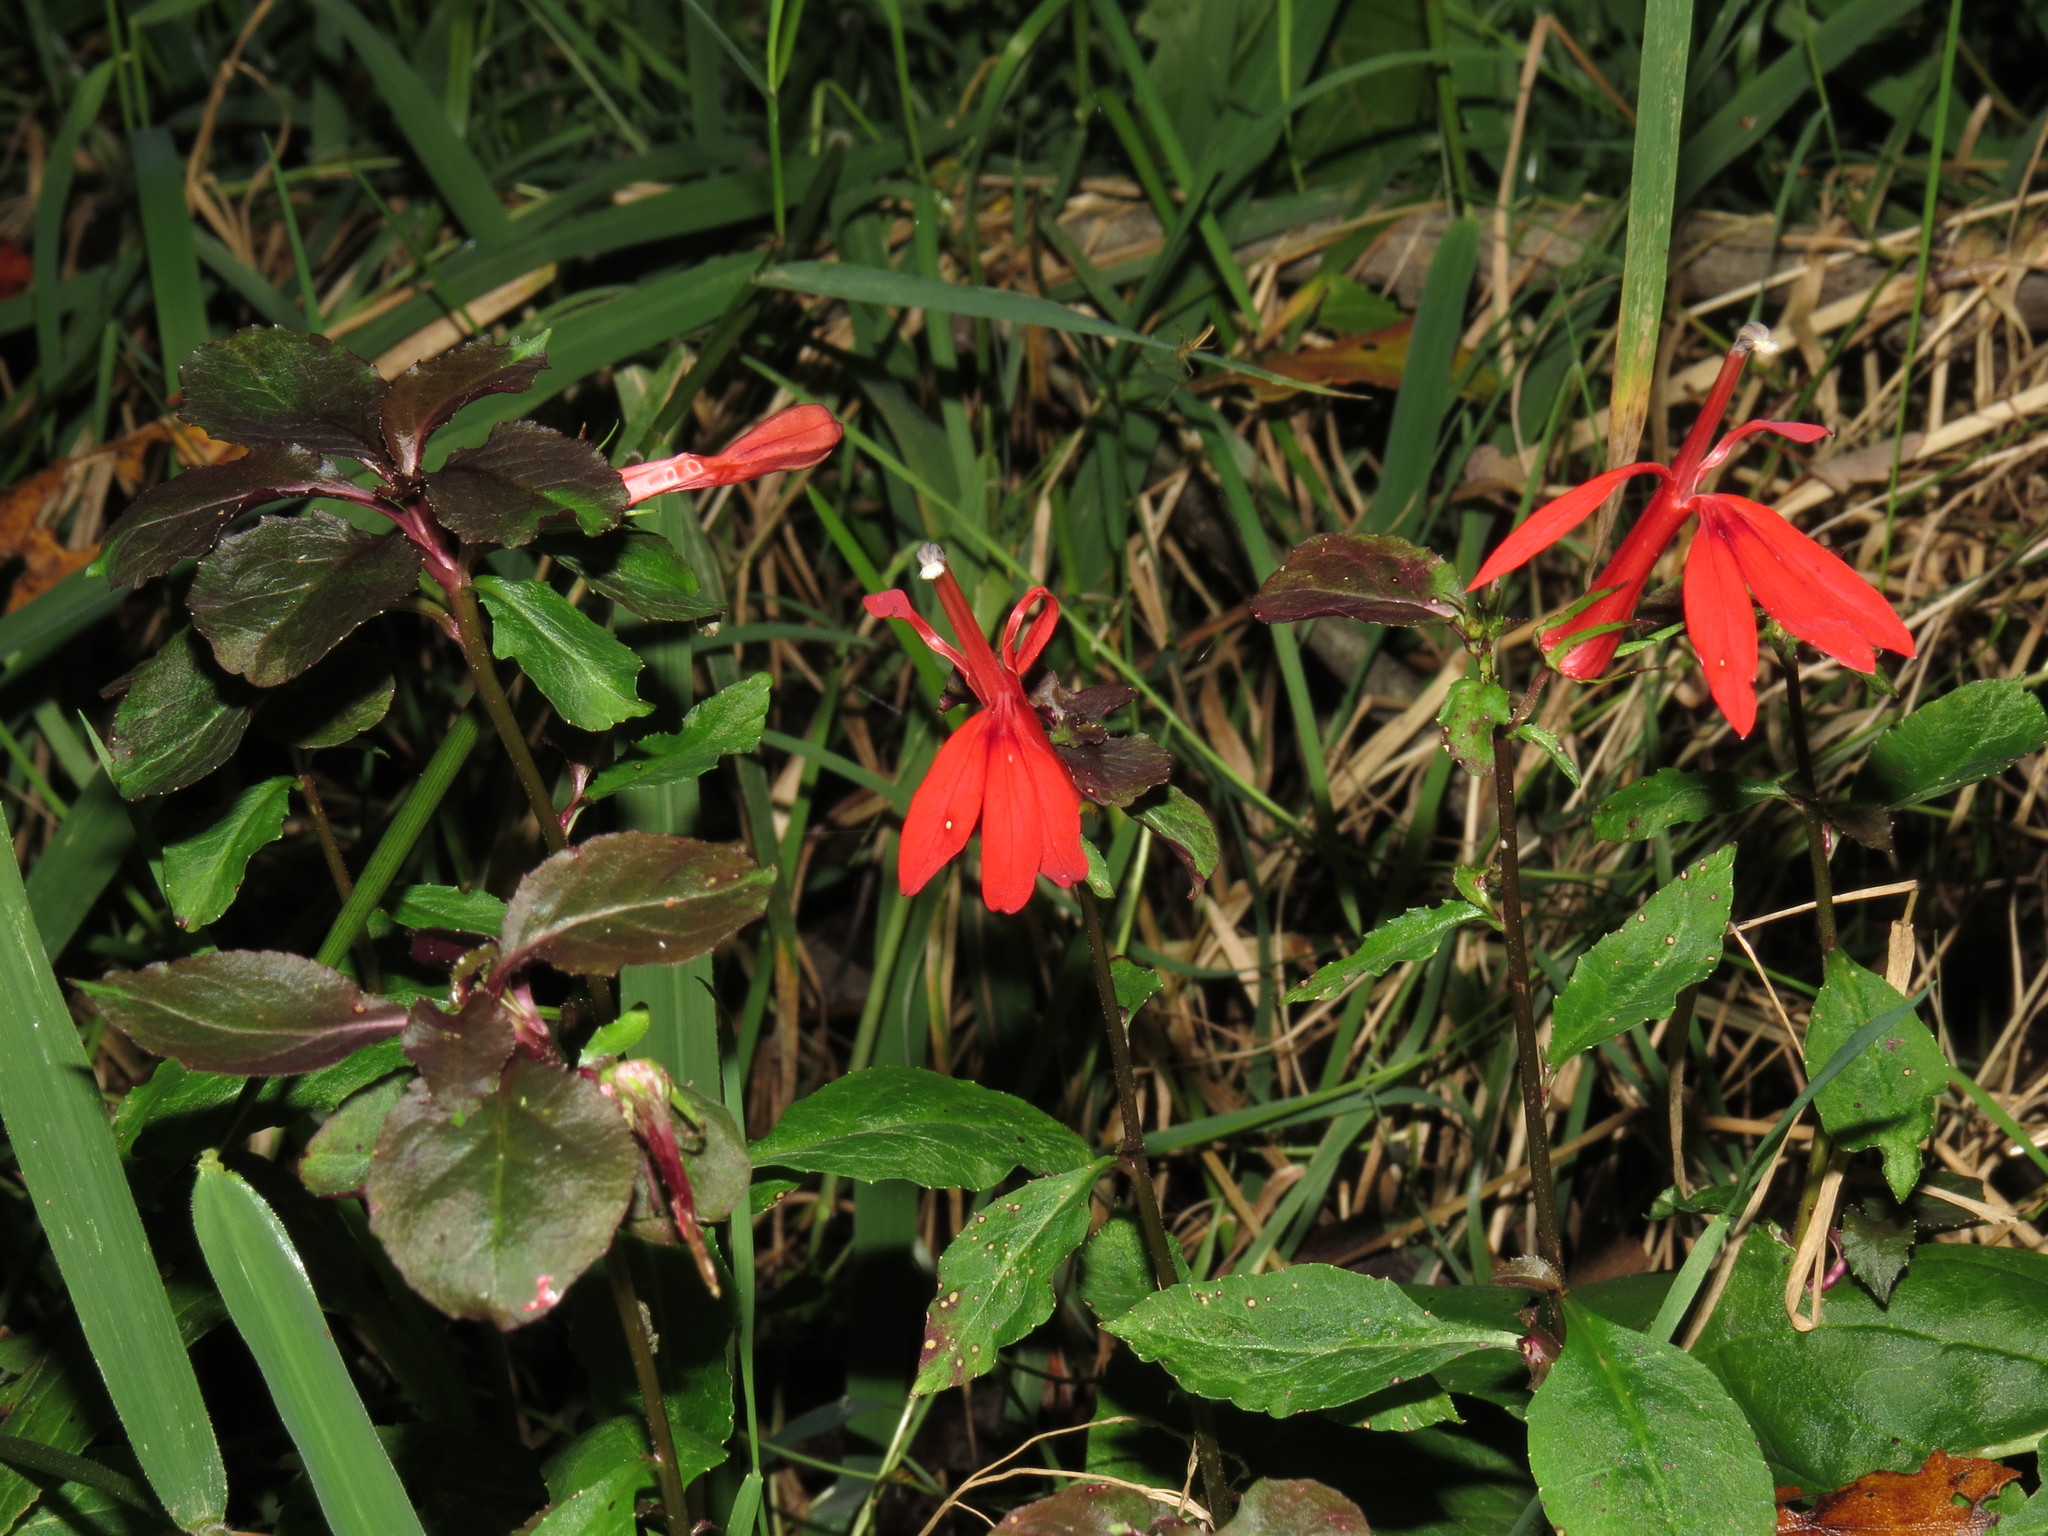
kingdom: Plantae
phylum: Tracheophyta
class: Magnoliopsida
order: Asterales
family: Campanulaceae
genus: Lobelia
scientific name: Lobelia cardinalis
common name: Cardinal flower
